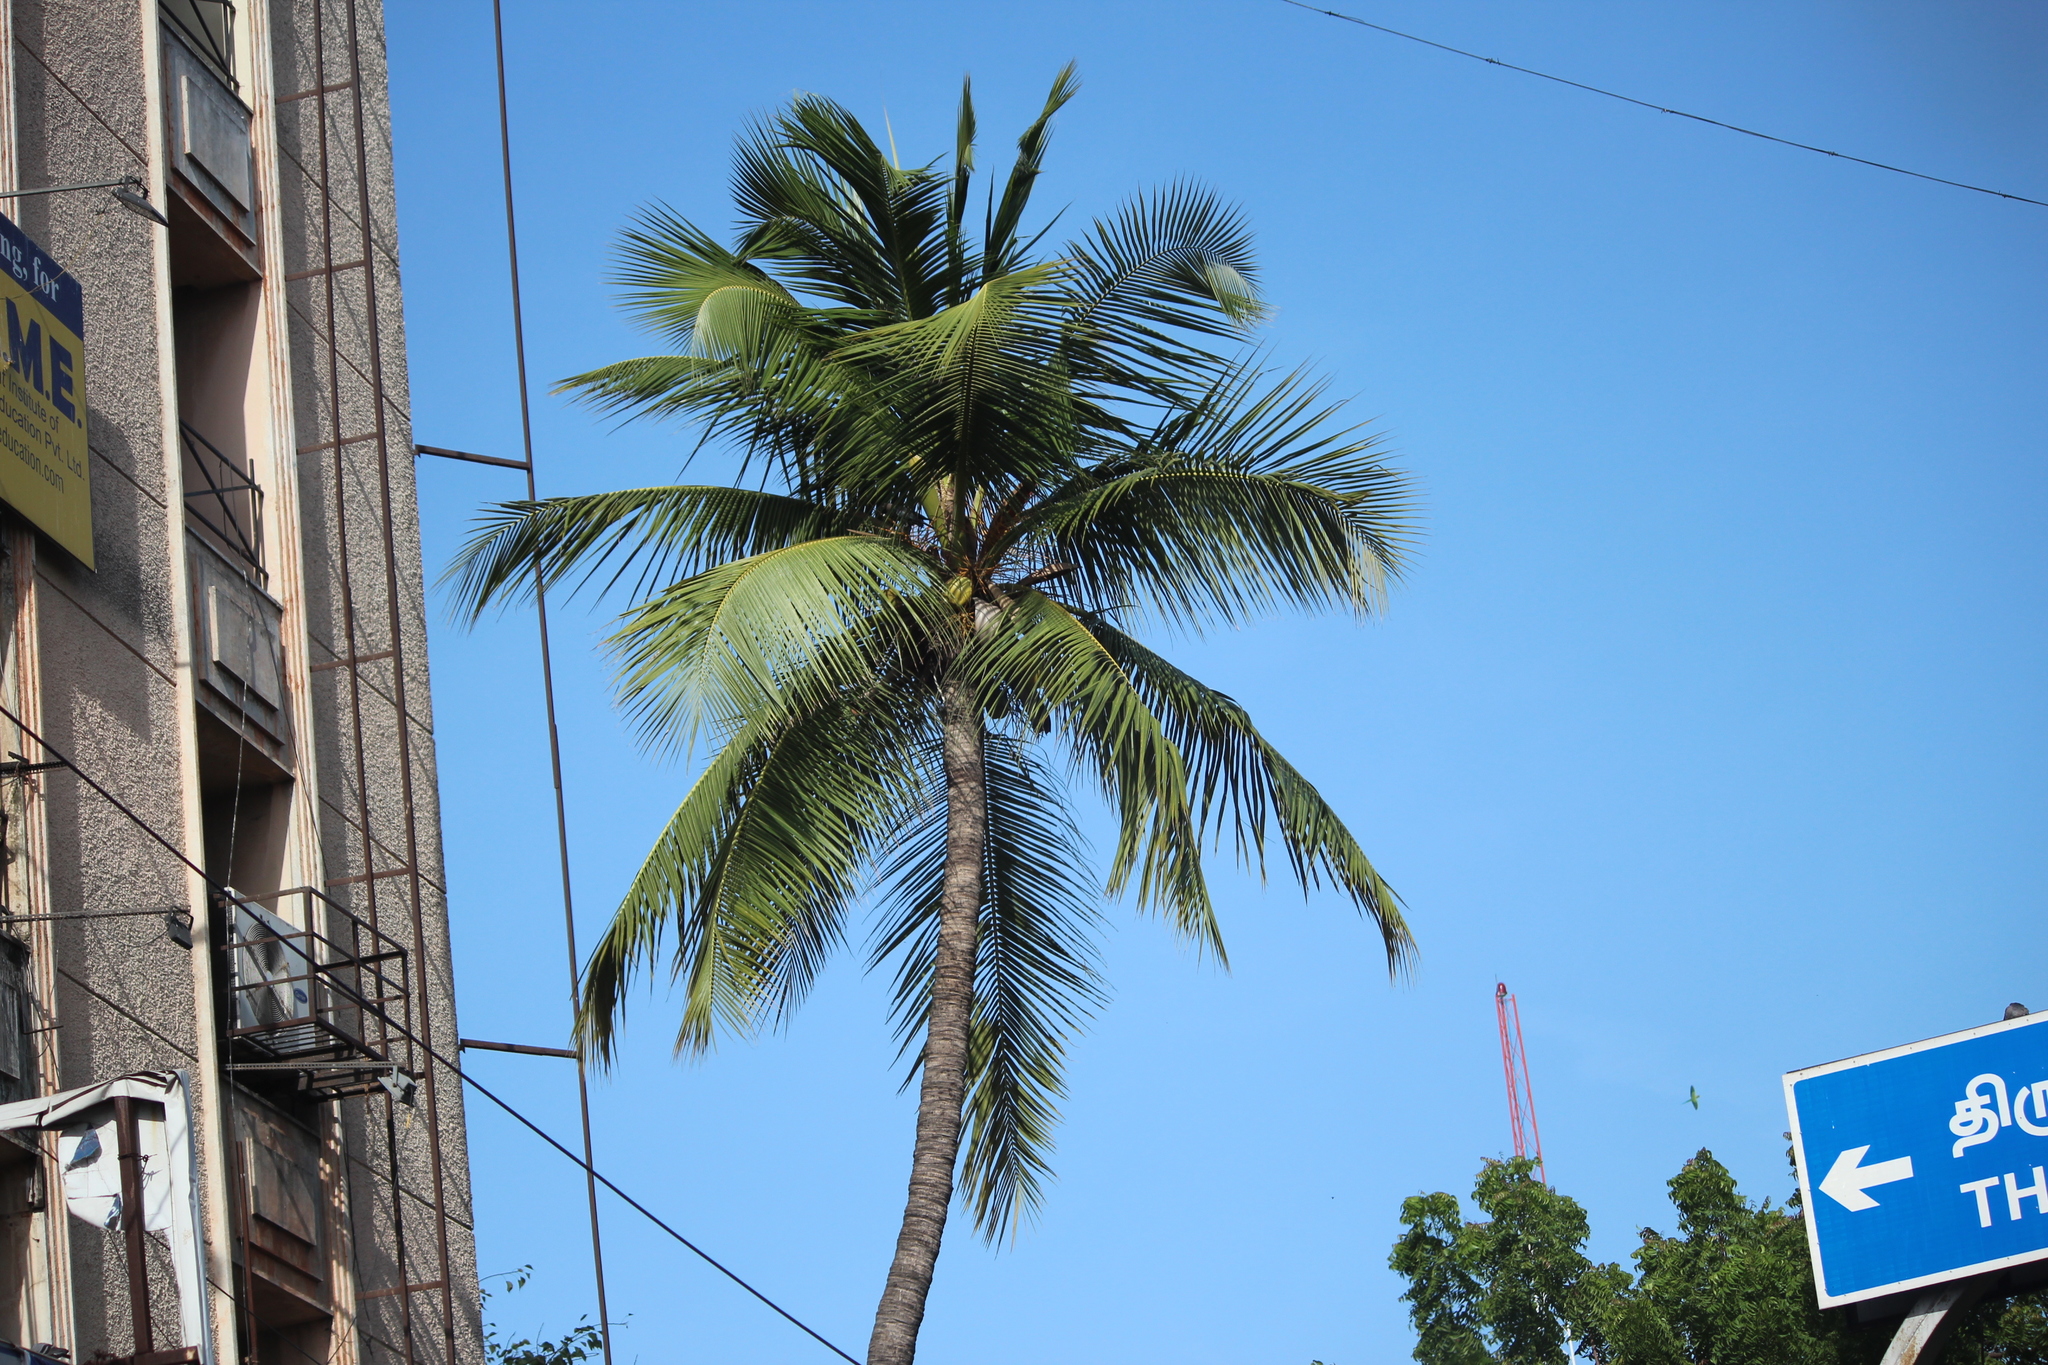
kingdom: Plantae
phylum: Tracheophyta
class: Liliopsida
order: Arecales
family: Arecaceae
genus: Cocos
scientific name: Cocos nucifera
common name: Coconut palm
